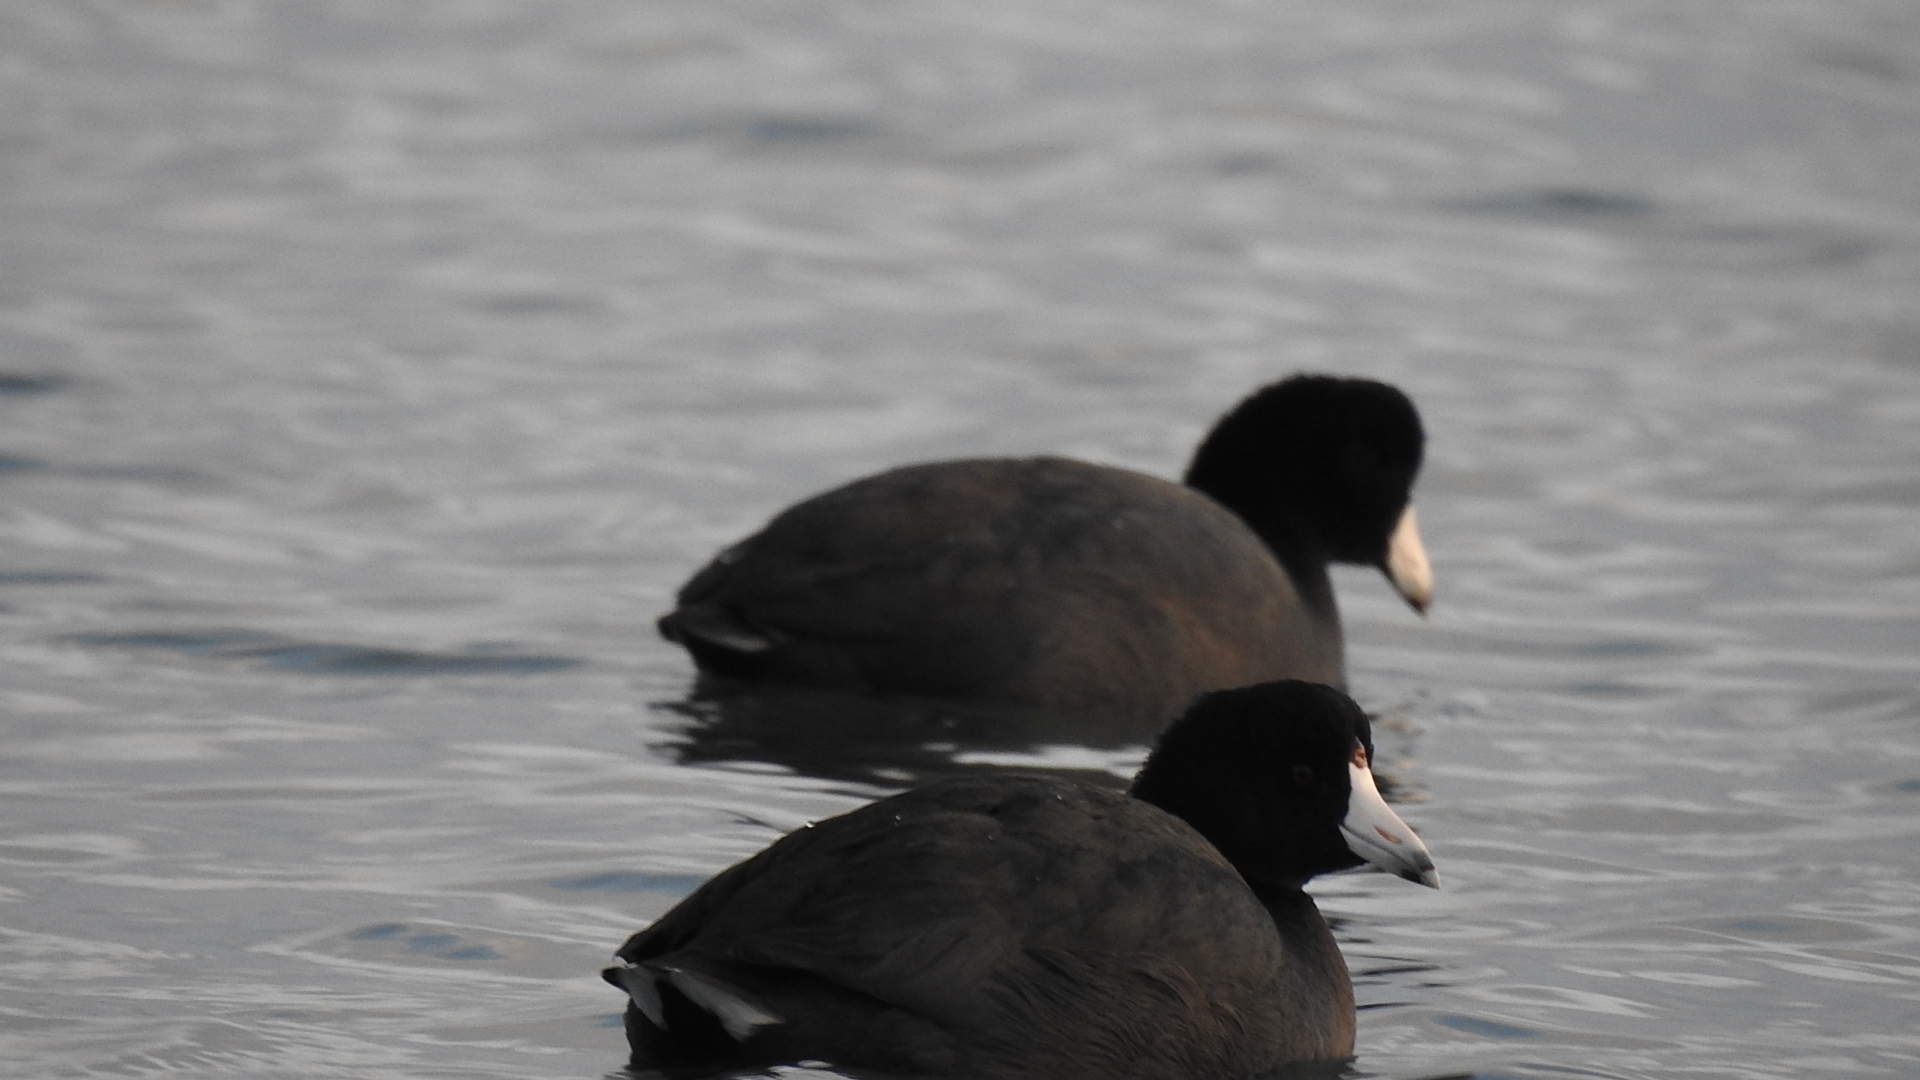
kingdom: Animalia
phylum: Chordata
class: Aves
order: Gruiformes
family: Rallidae
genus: Fulica
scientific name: Fulica americana
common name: American coot
